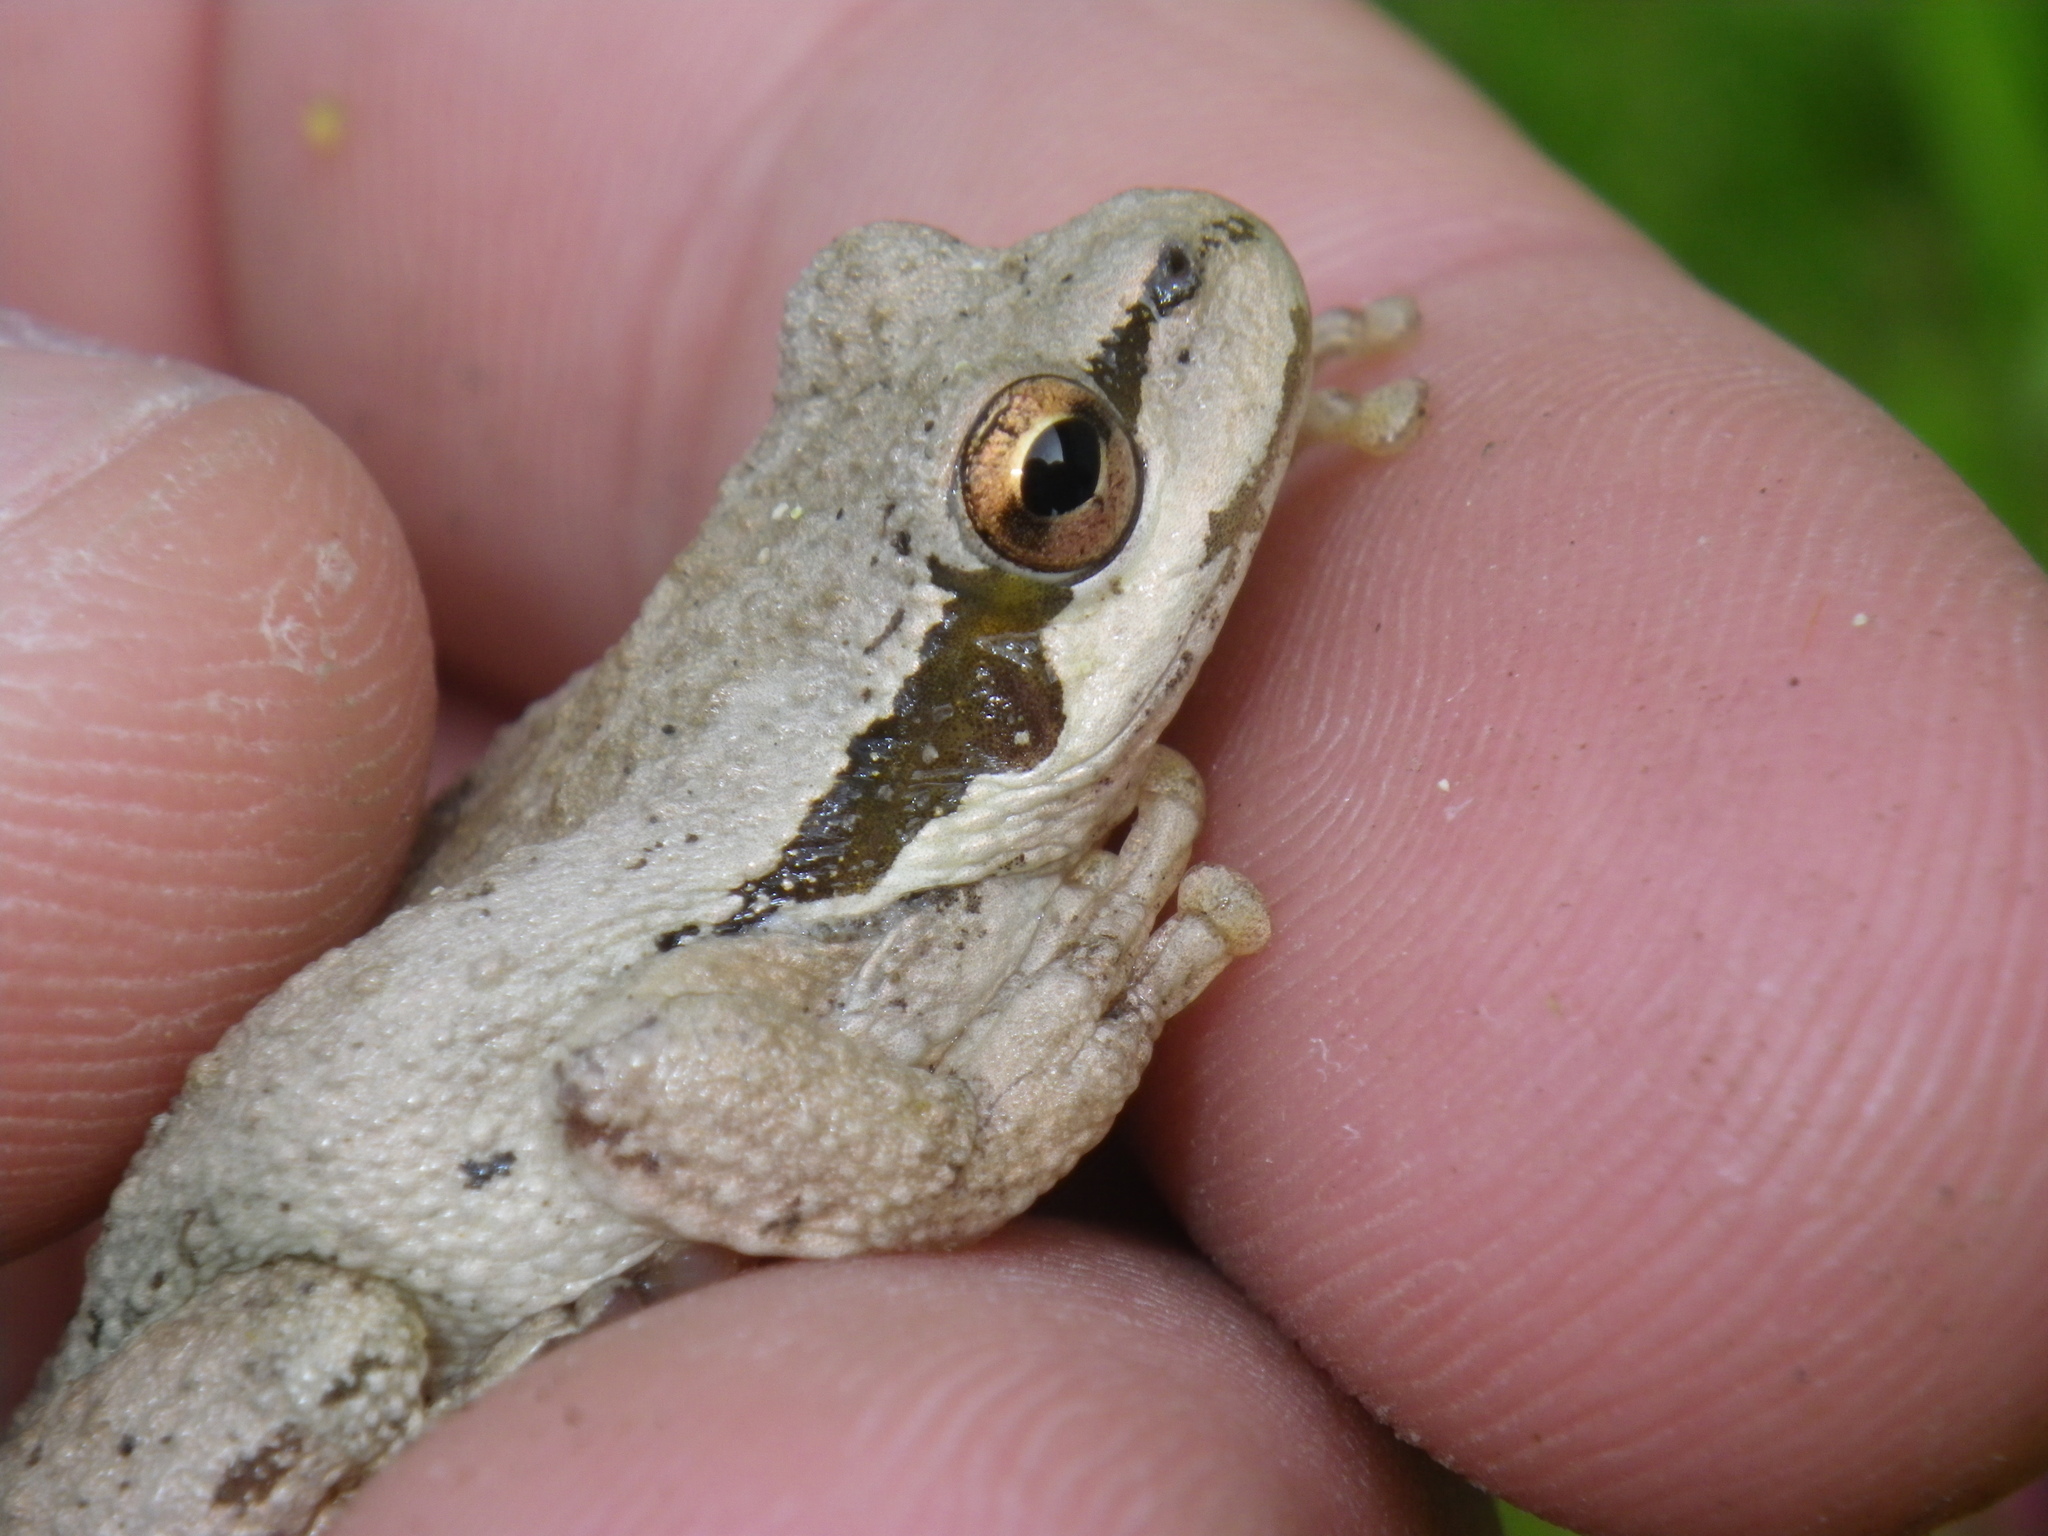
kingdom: Animalia
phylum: Chordata
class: Amphibia
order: Anura
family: Hylidae
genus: Pseudacris
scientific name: Pseudacris regilla
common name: Pacific chorus frog
